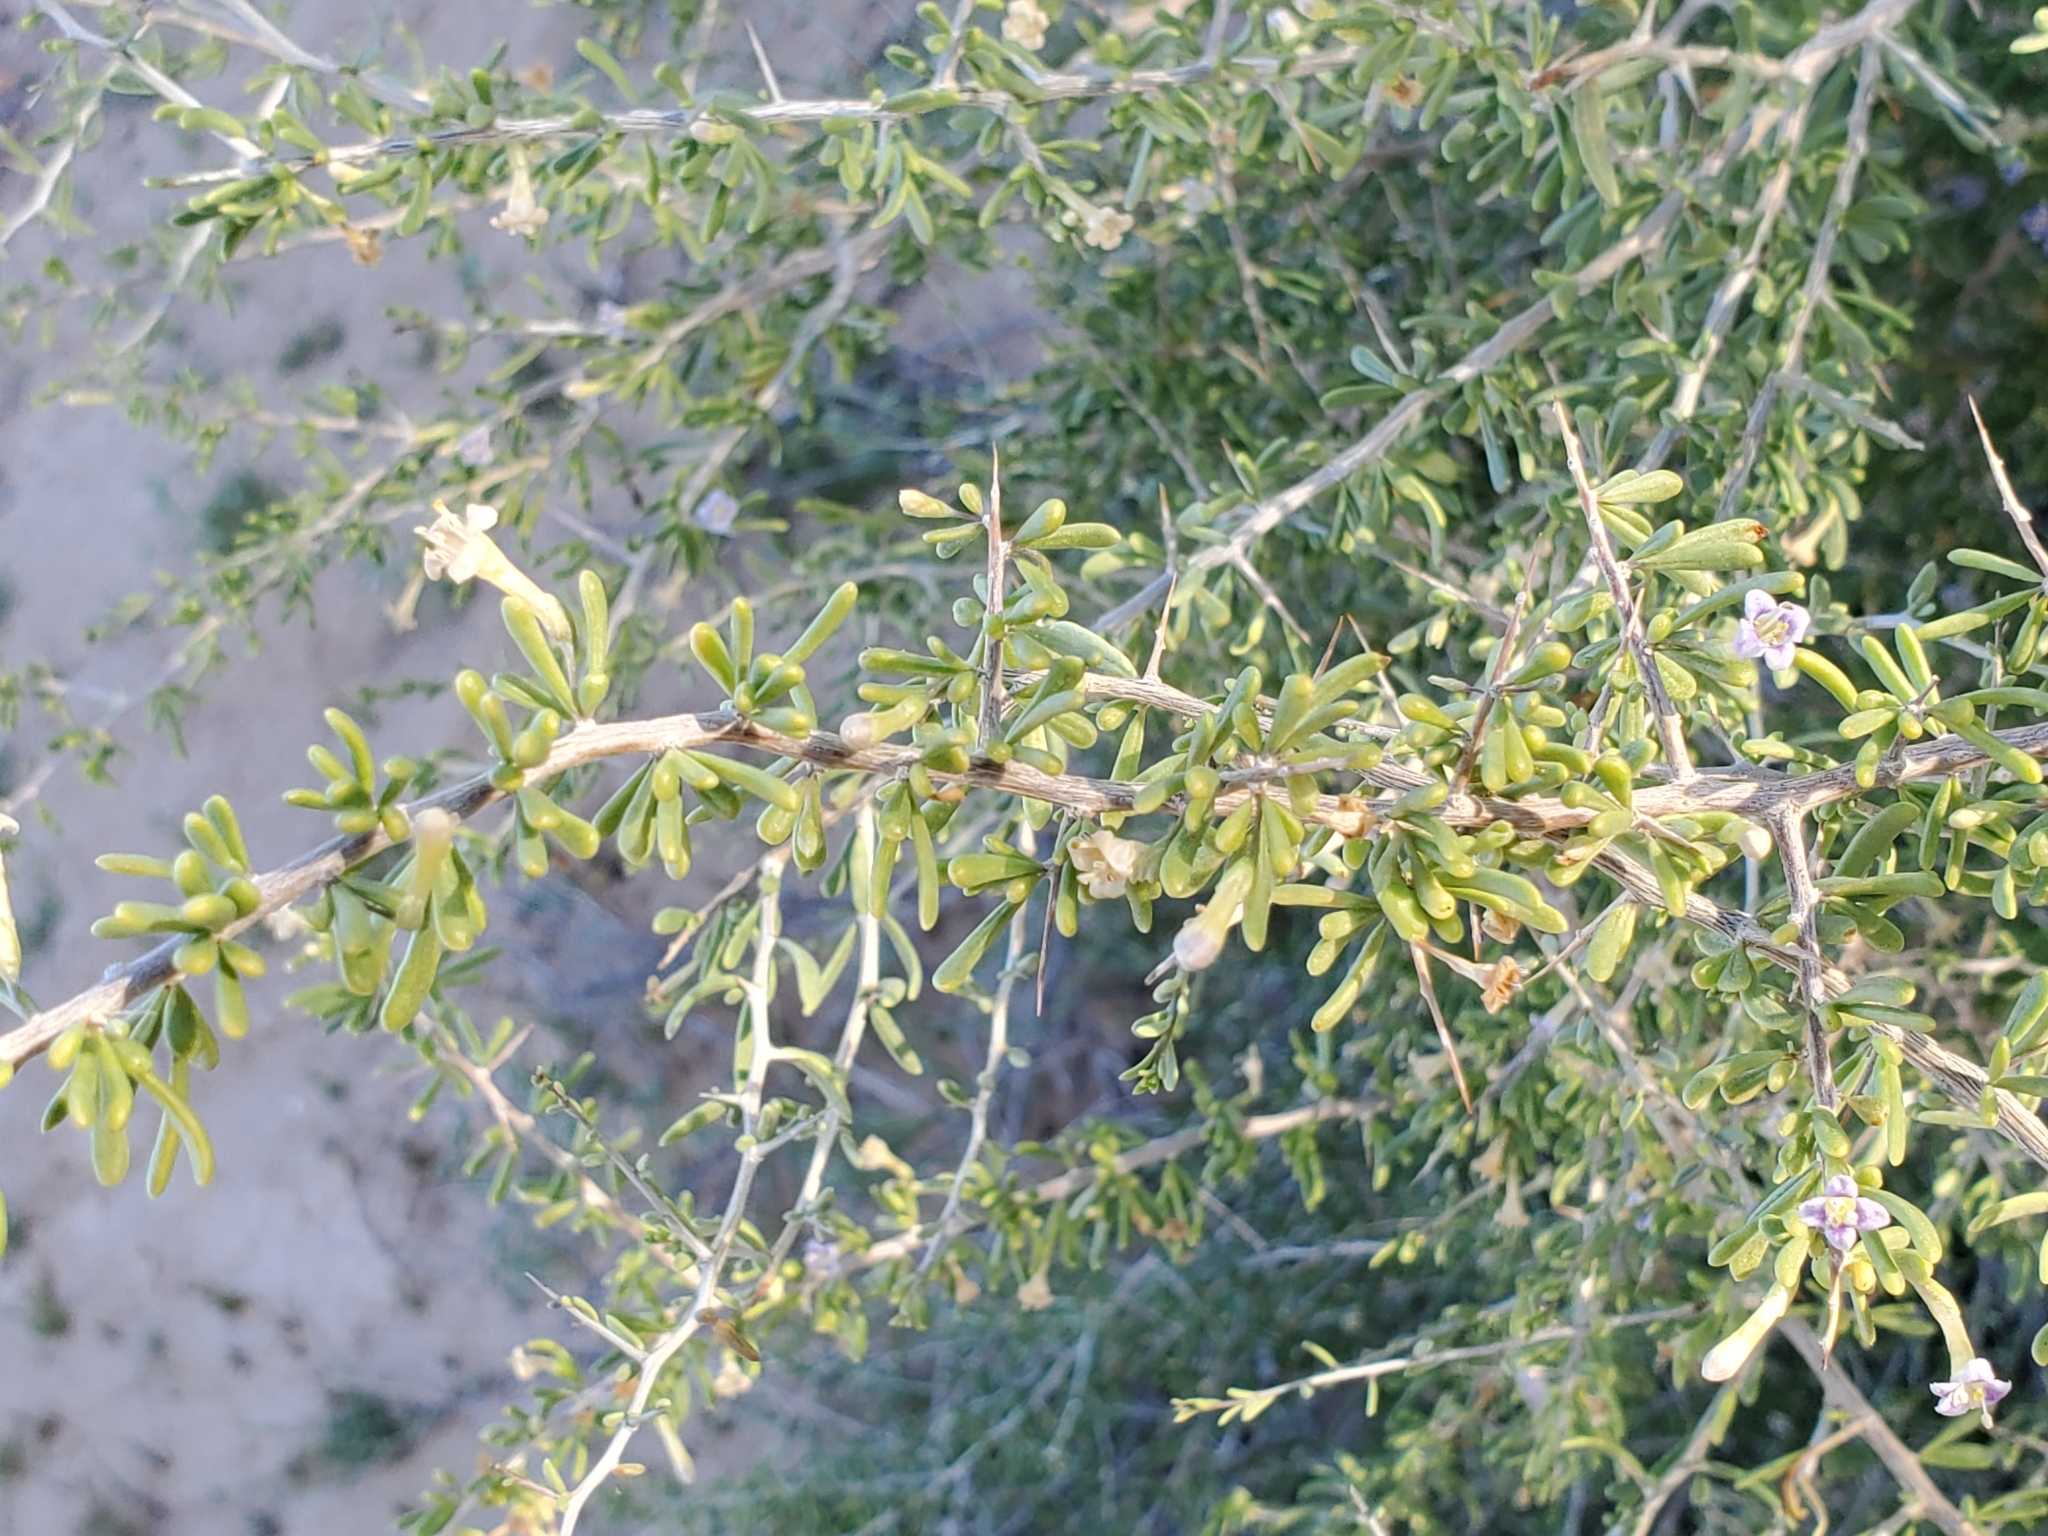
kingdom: Plantae
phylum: Tracheophyta
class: Magnoliopsida
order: Solanales
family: Solanaceae
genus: Lycium
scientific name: Lycium andersonii
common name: Water-jacket
